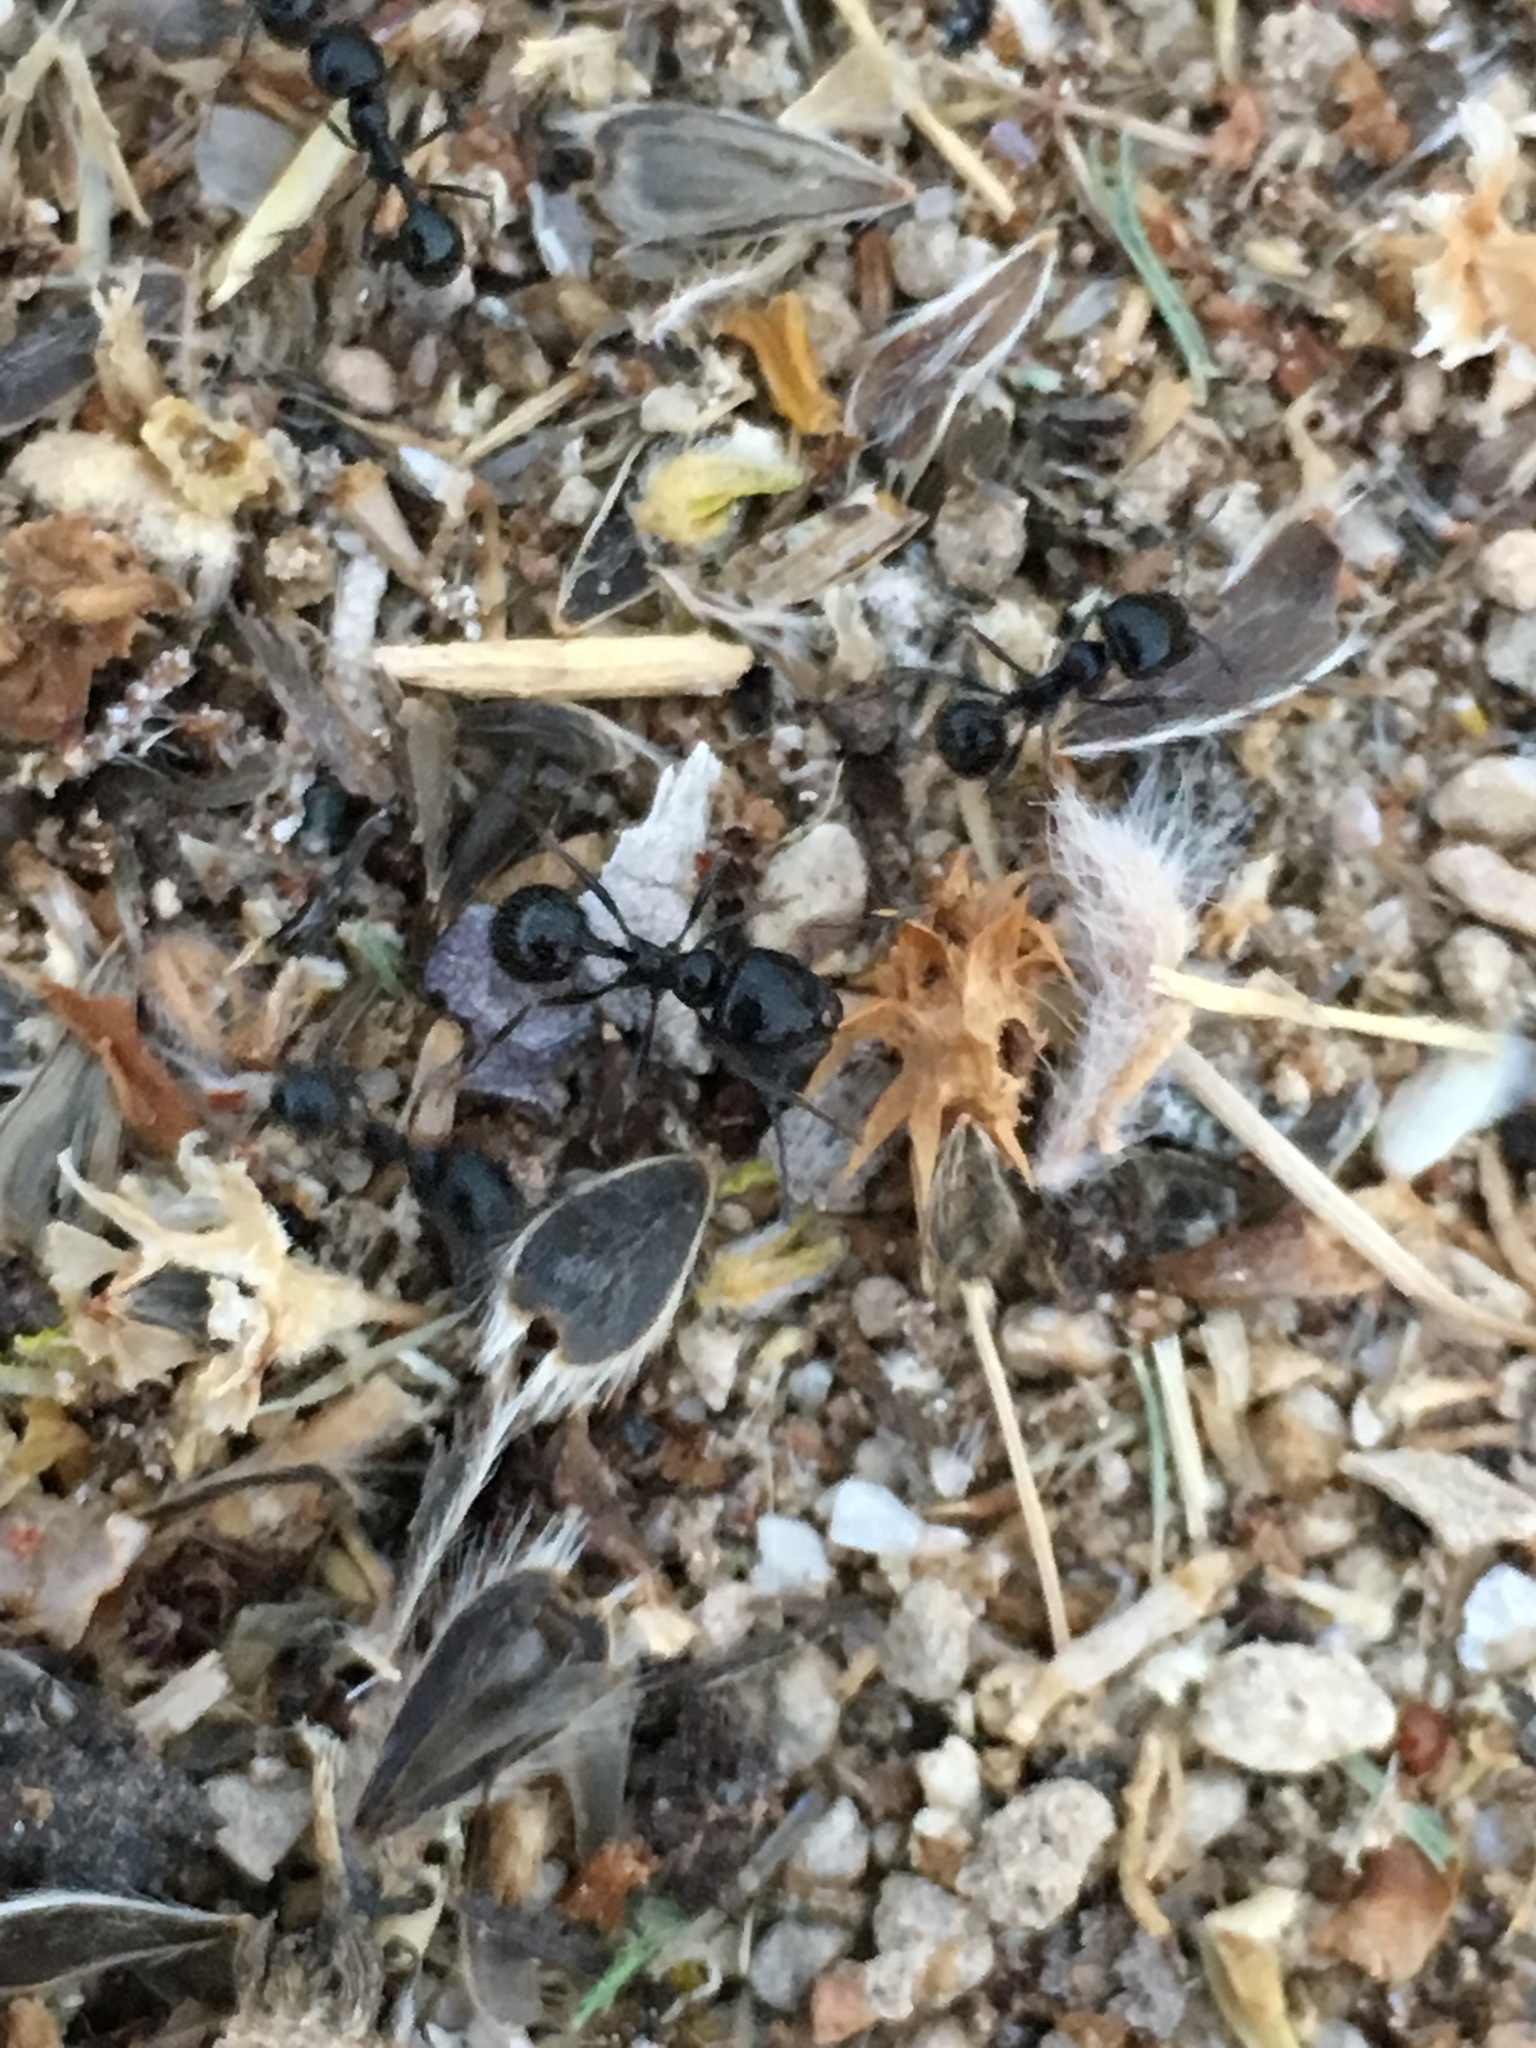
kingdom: Animalia
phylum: Arthropoda
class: Insecta
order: Hymenoptera
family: Formicidae
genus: Messor
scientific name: Messor pergandei
